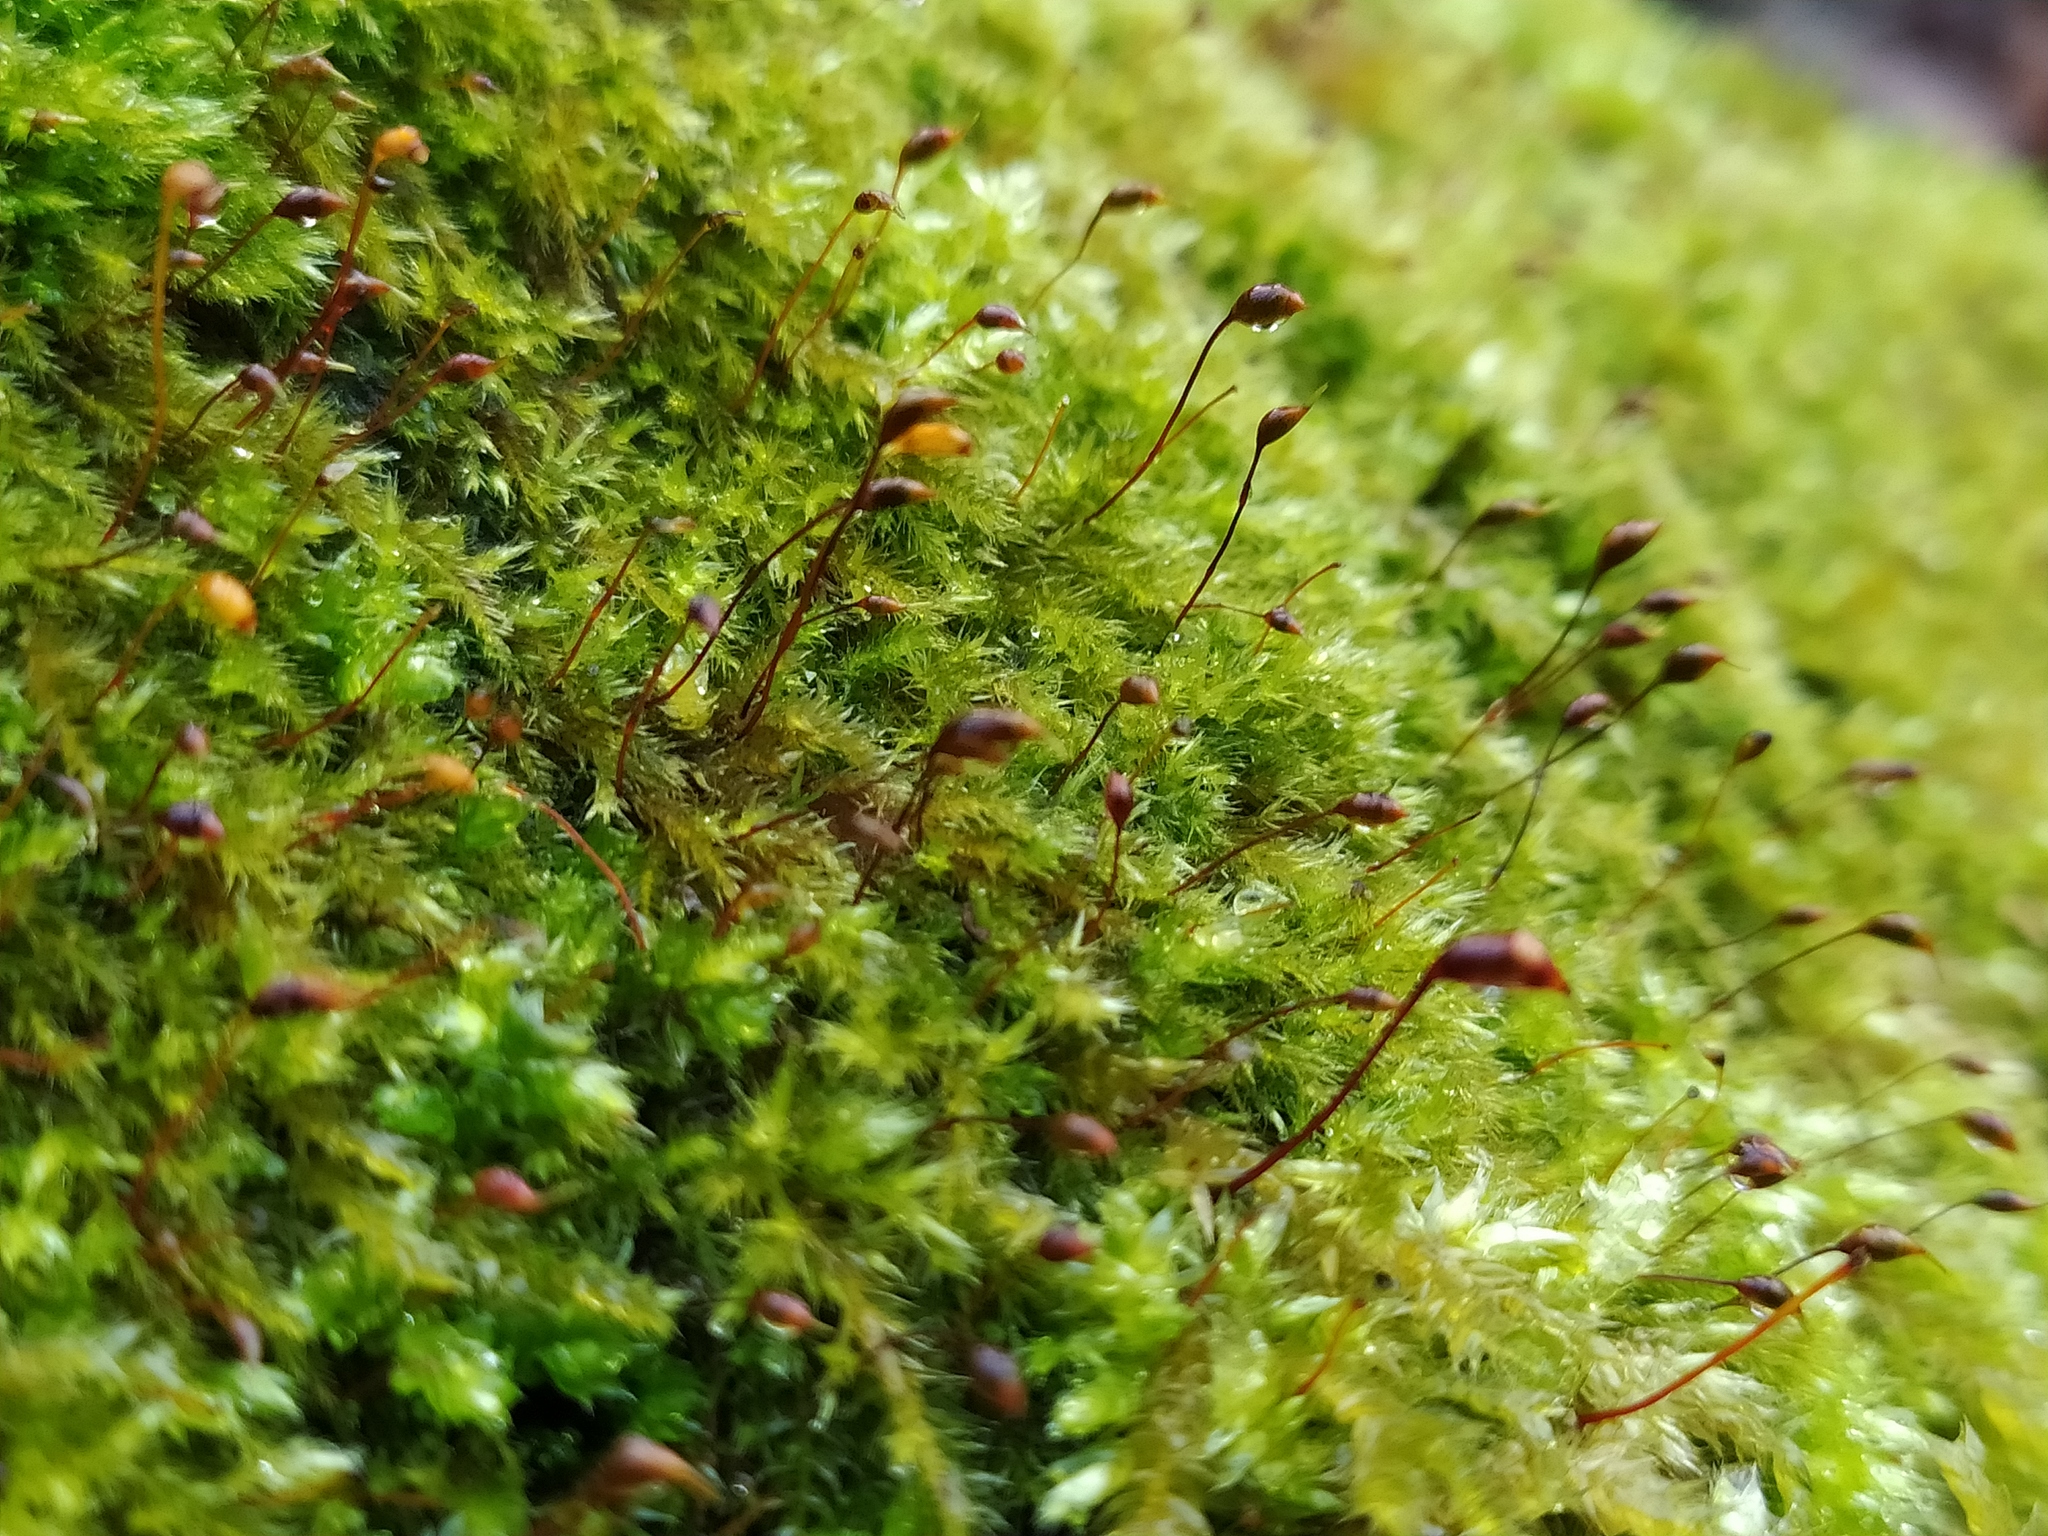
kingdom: Plantae
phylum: Bryophyta
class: Bryopsida
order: Hypnales
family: Brachytheciaceae
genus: Sciuro-hypnum
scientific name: Sciuro-hypnum populeum
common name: Matted feather-moss
